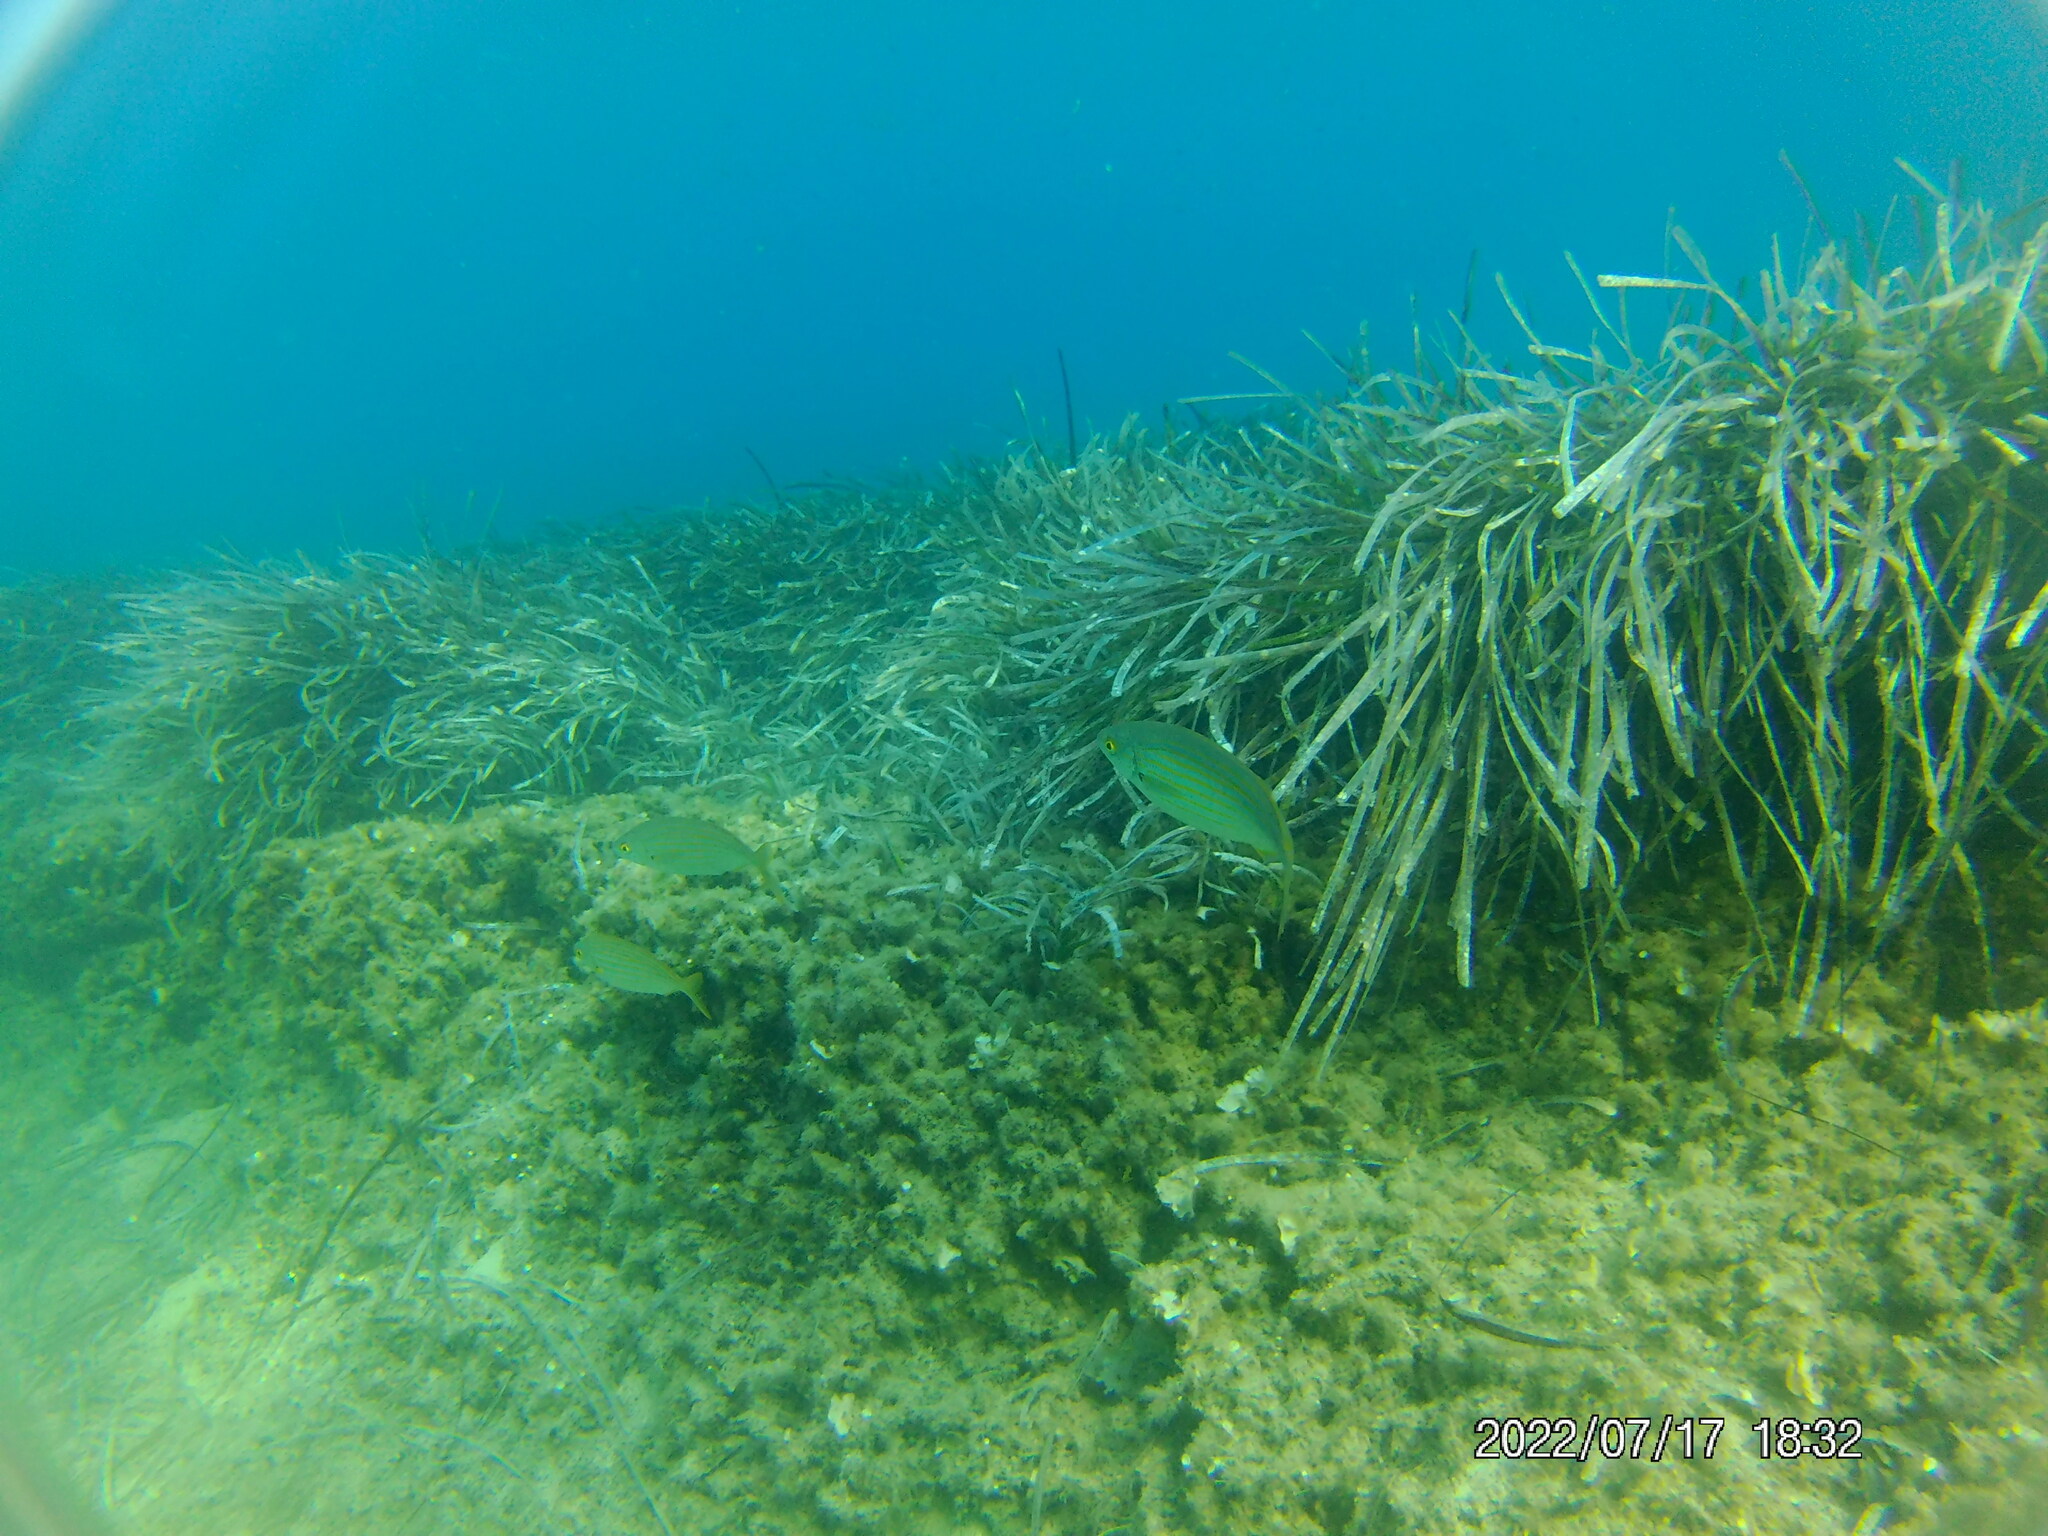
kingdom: Animalia
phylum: Chordata
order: Perciformes
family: Sparidae
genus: Sarpa
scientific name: Sarpa salpa
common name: Salema
